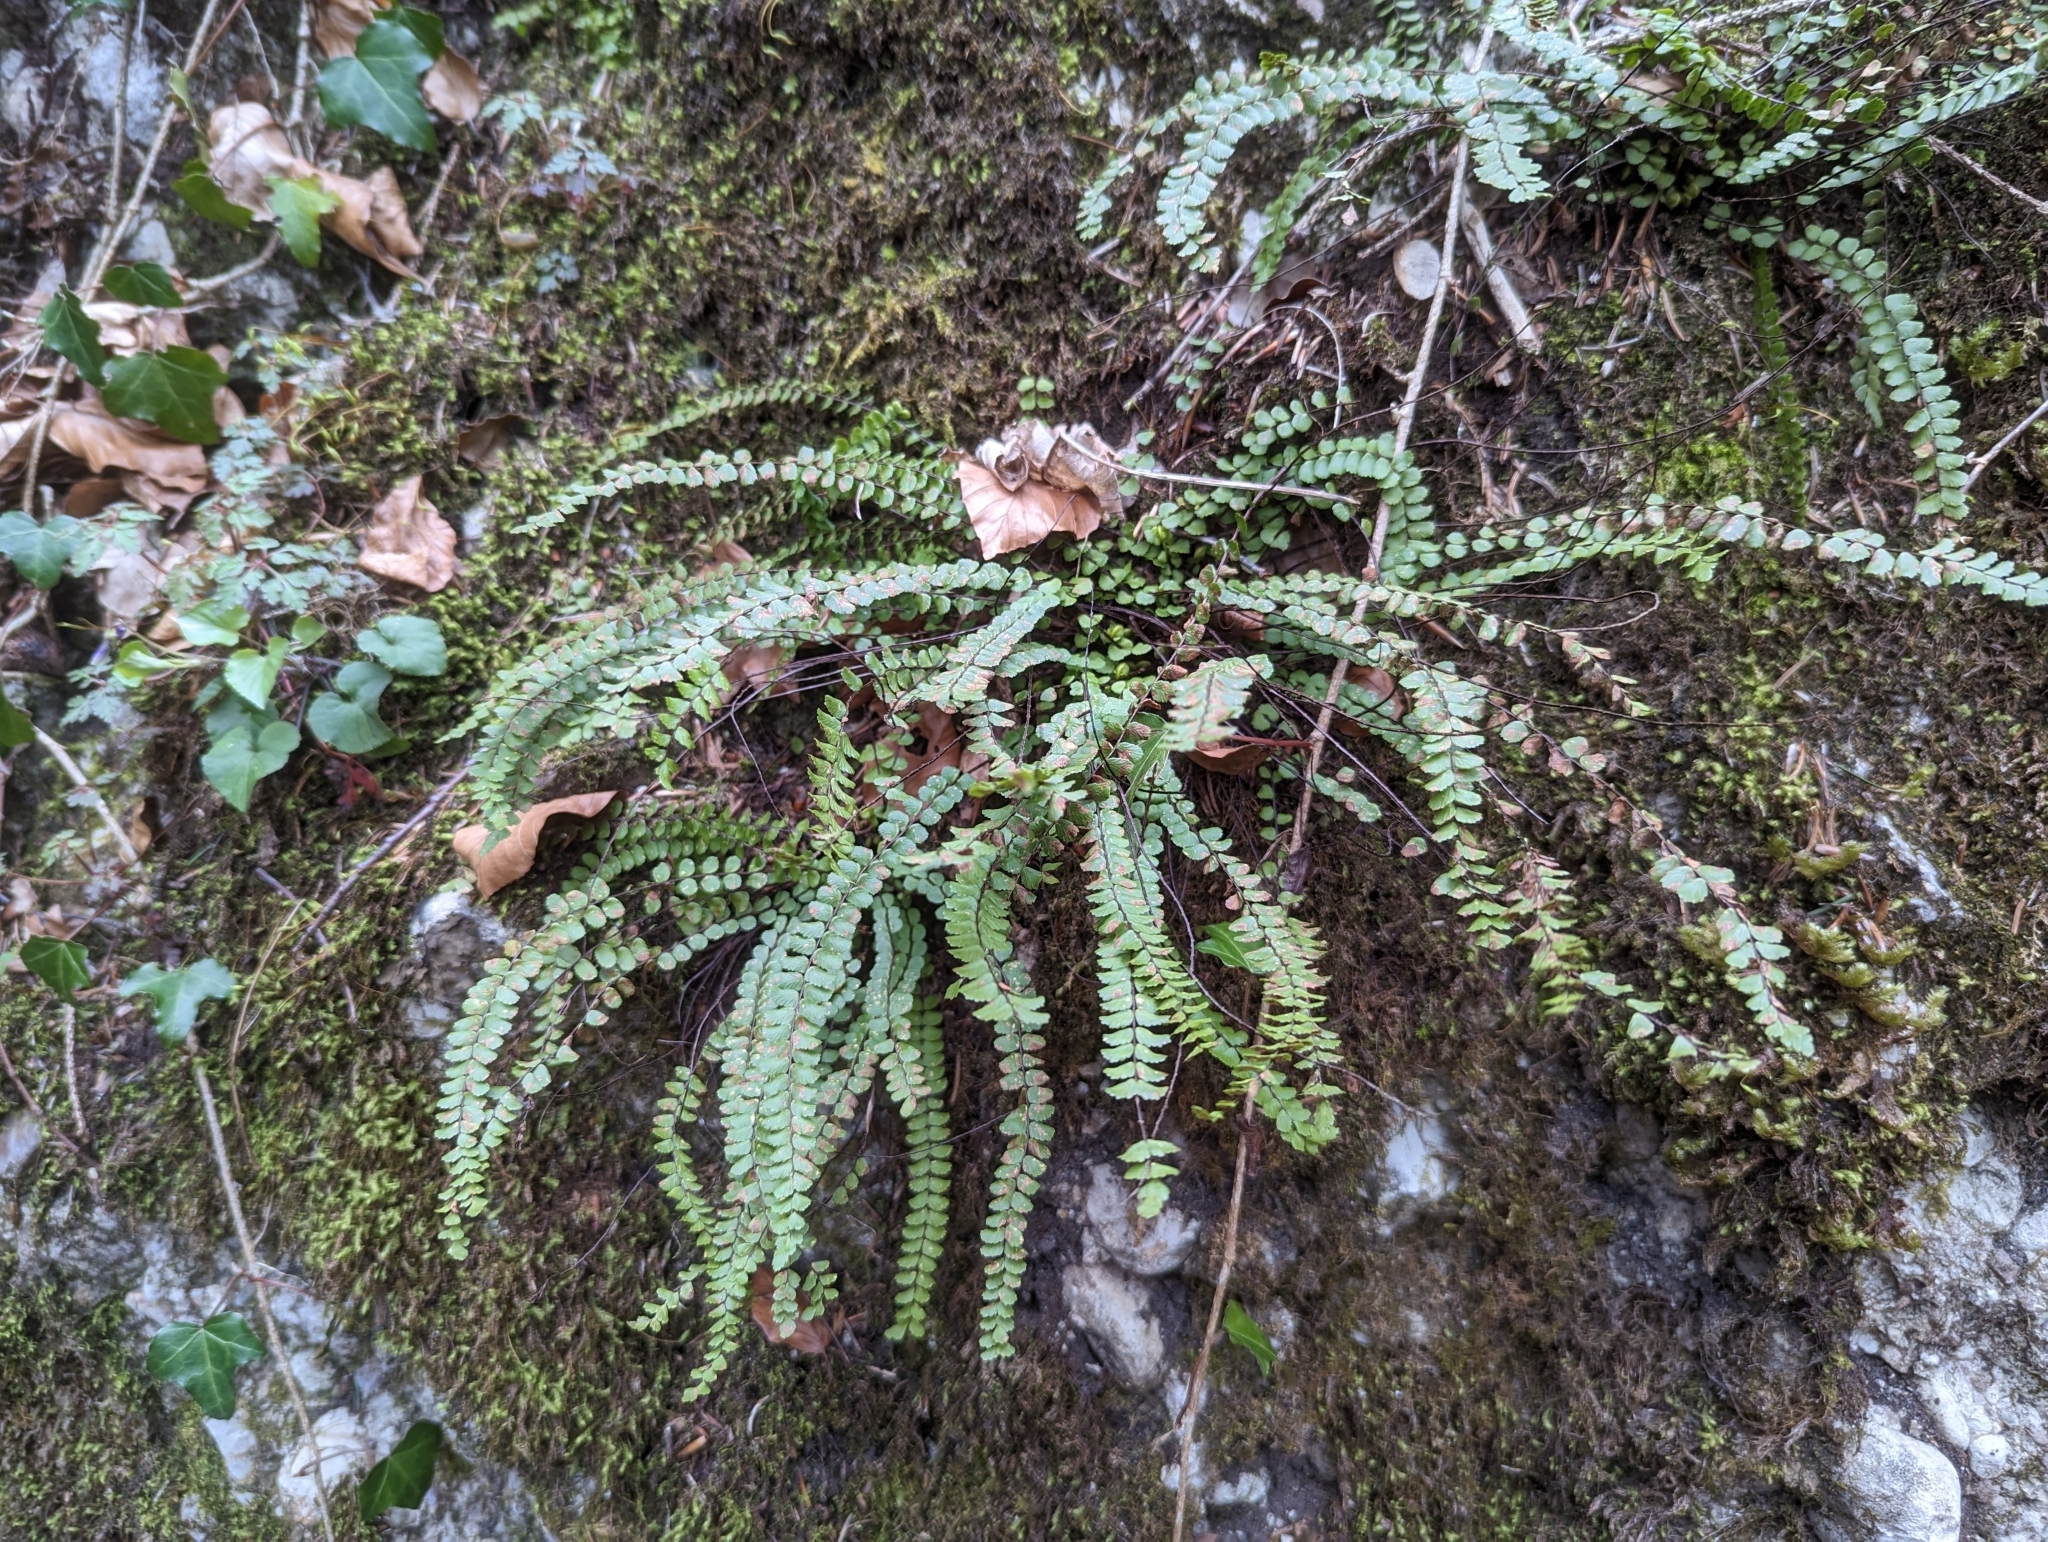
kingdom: Plantae
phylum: Tracheophyta
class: Polypodiopsida
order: Polypodiales
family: Aspleniaceae
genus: Asplenium
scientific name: Asplenium trichomanes
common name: Maidenhair spleenwort
